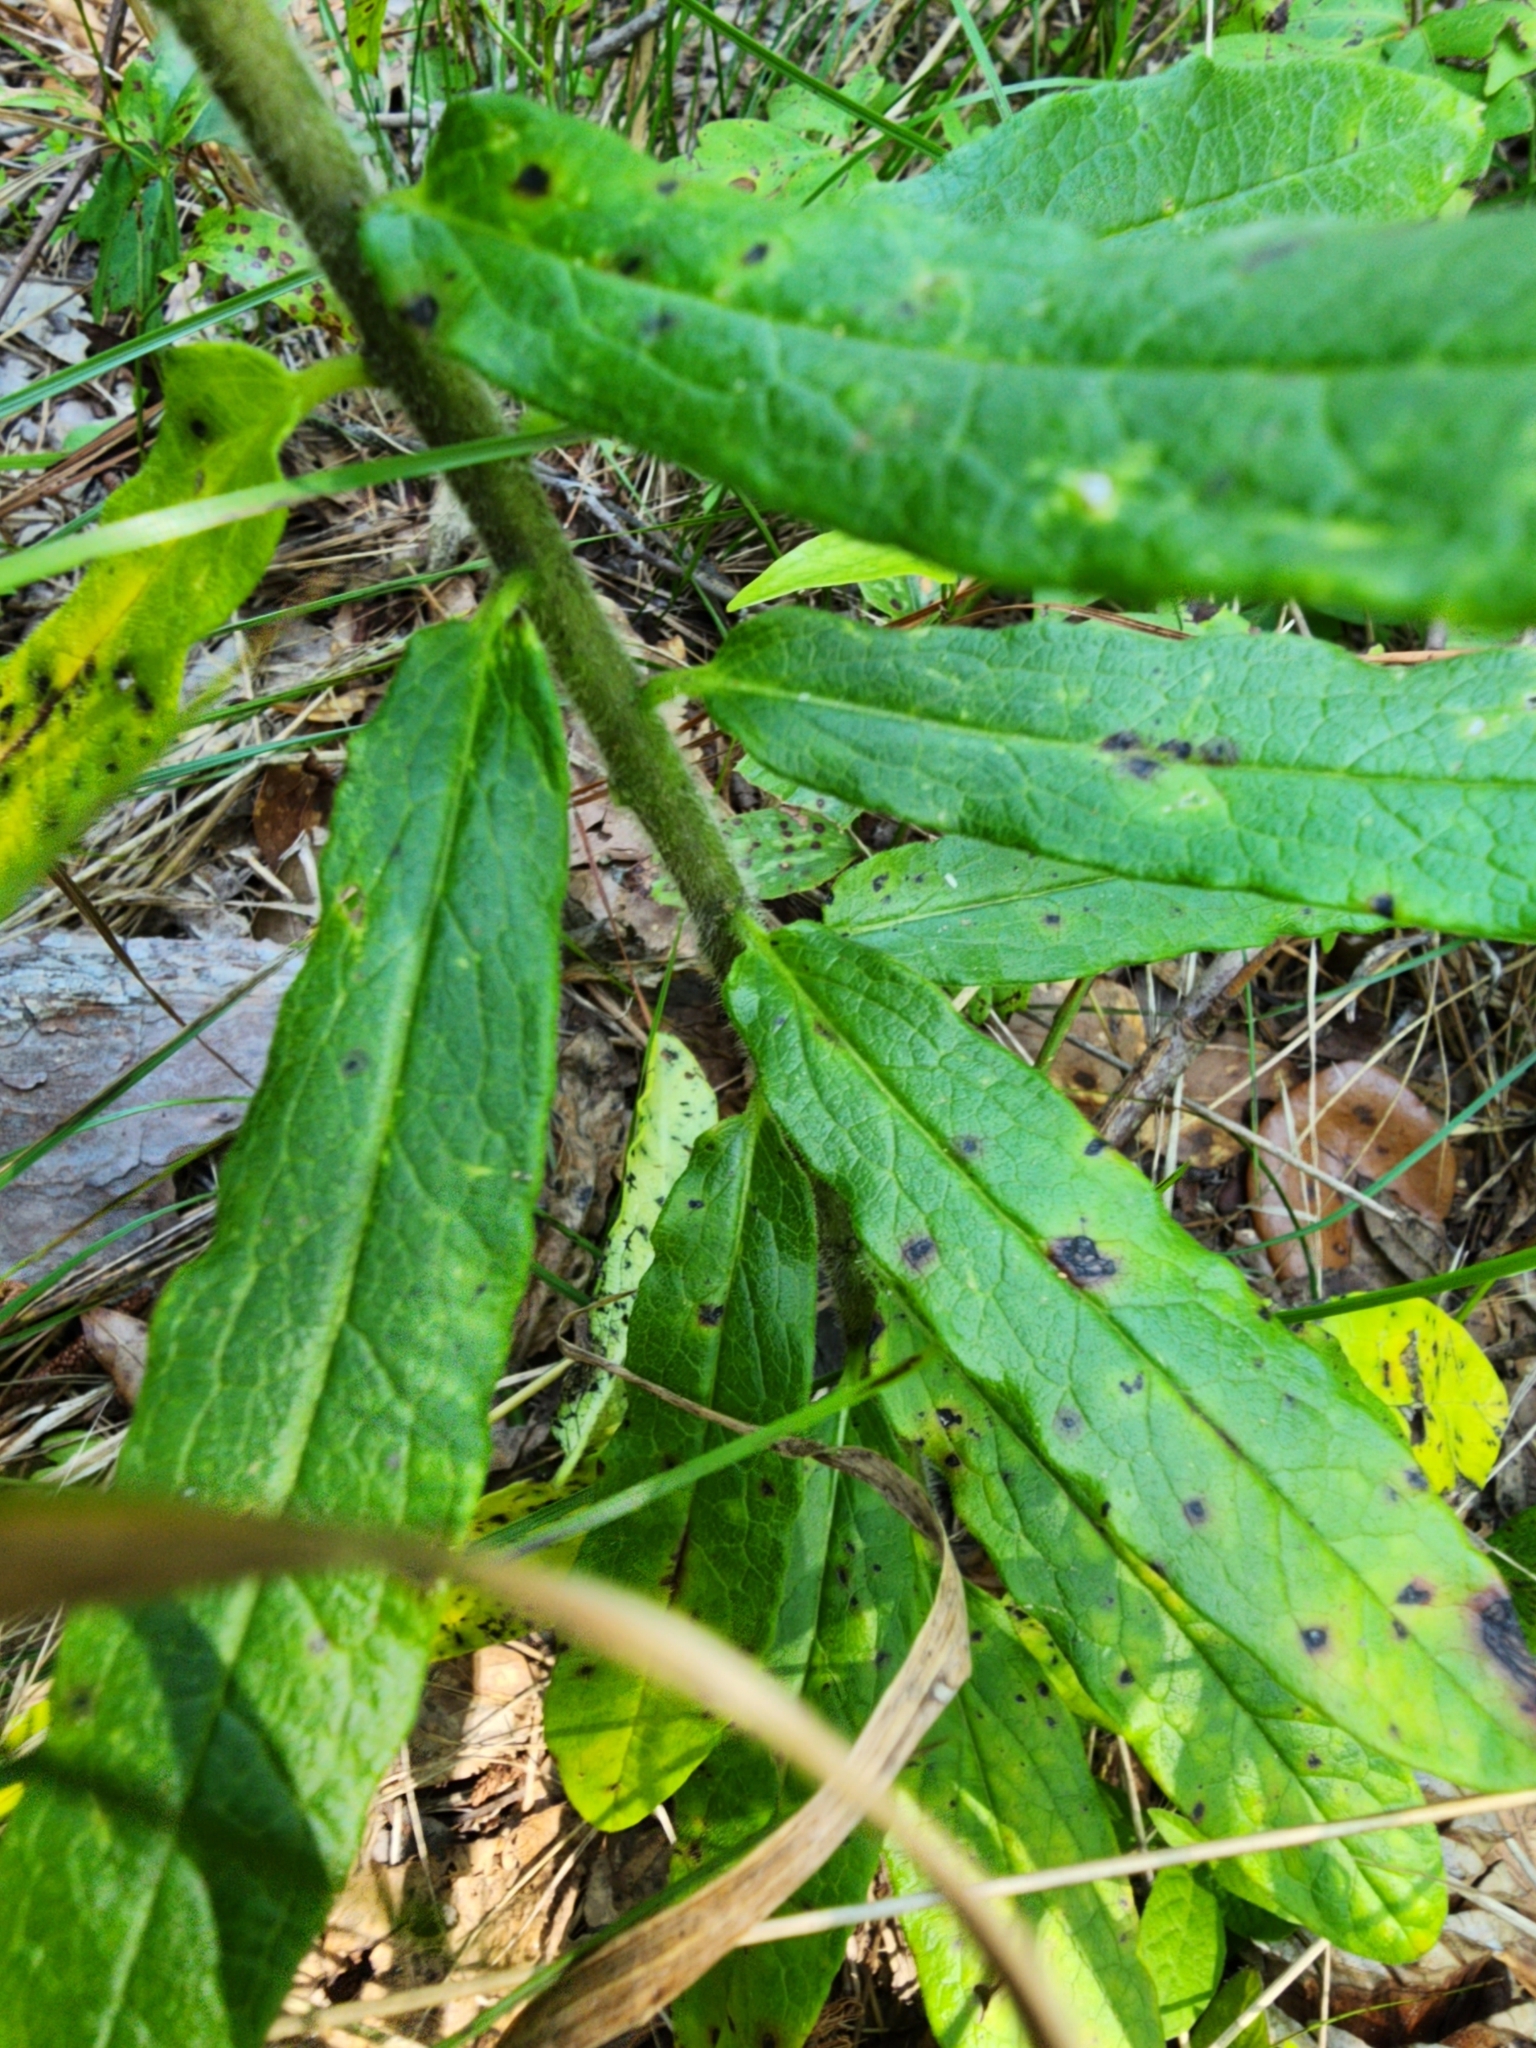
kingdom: Plantae
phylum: Tracheophyta
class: Magnoliopsida
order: Gentianales
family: Apocynaceae
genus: Asclepias
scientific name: Asclepias tuberosa
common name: Butterfly milkweed
